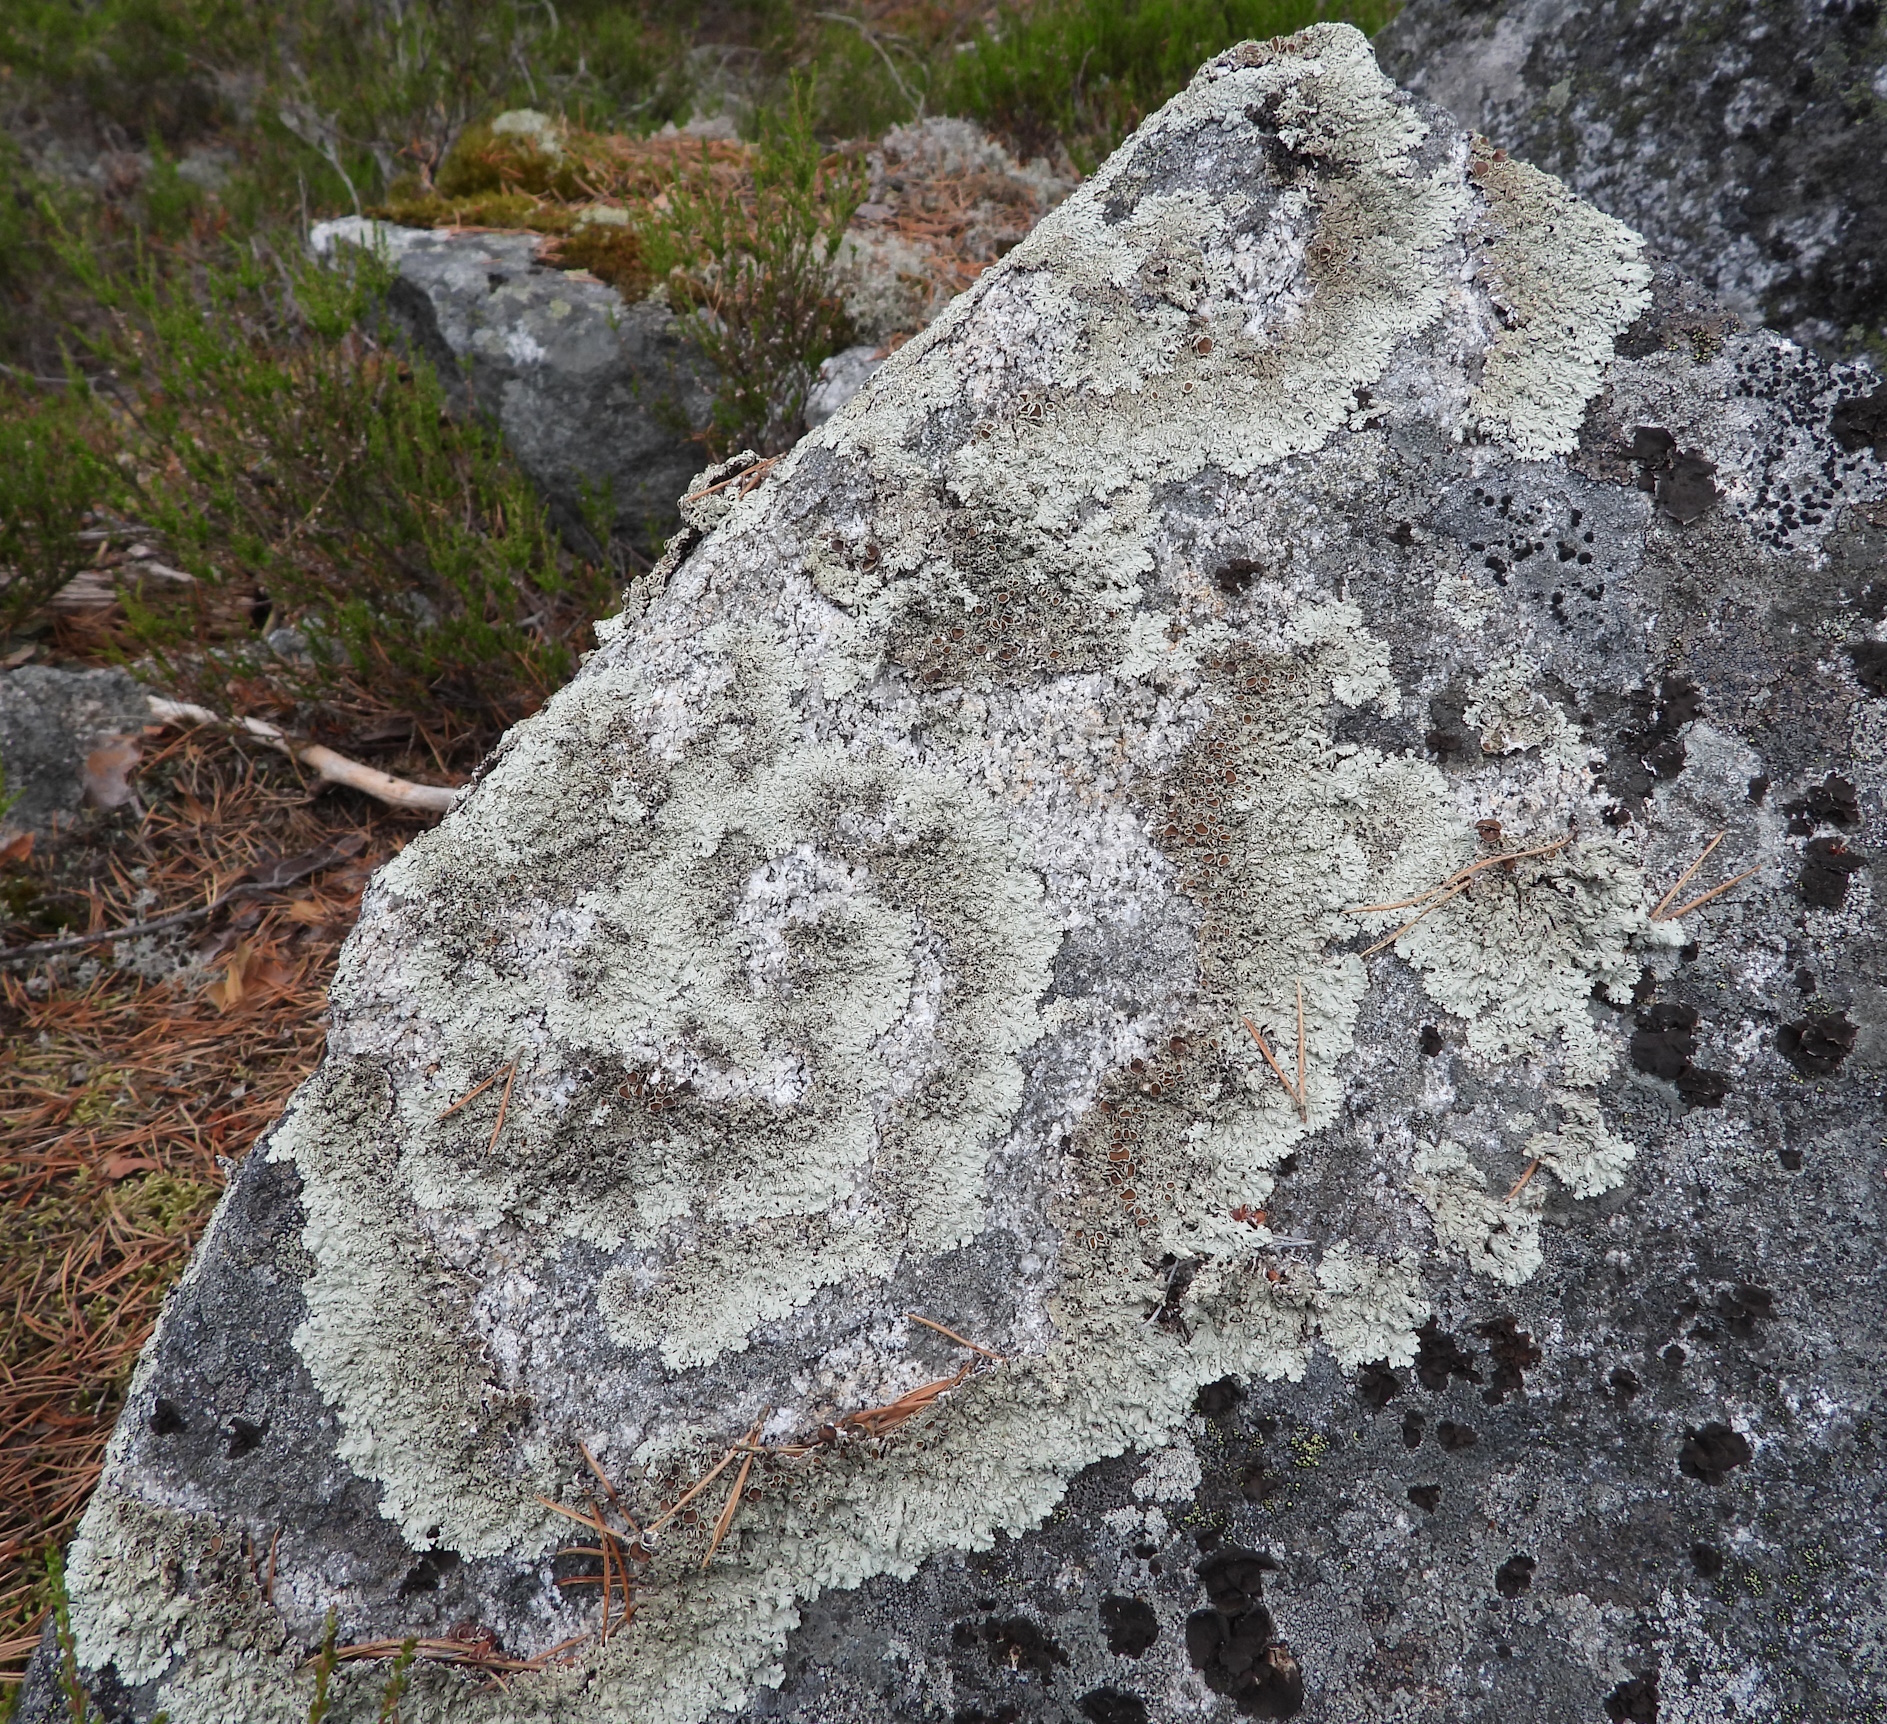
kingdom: Fungi
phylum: Ascomycota
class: Lecanoromycetes
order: Lecanorales
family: Parmeliaceae
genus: Arctoparmelia
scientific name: Arctoparmelia centrifuga
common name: Concentric ring lichen
